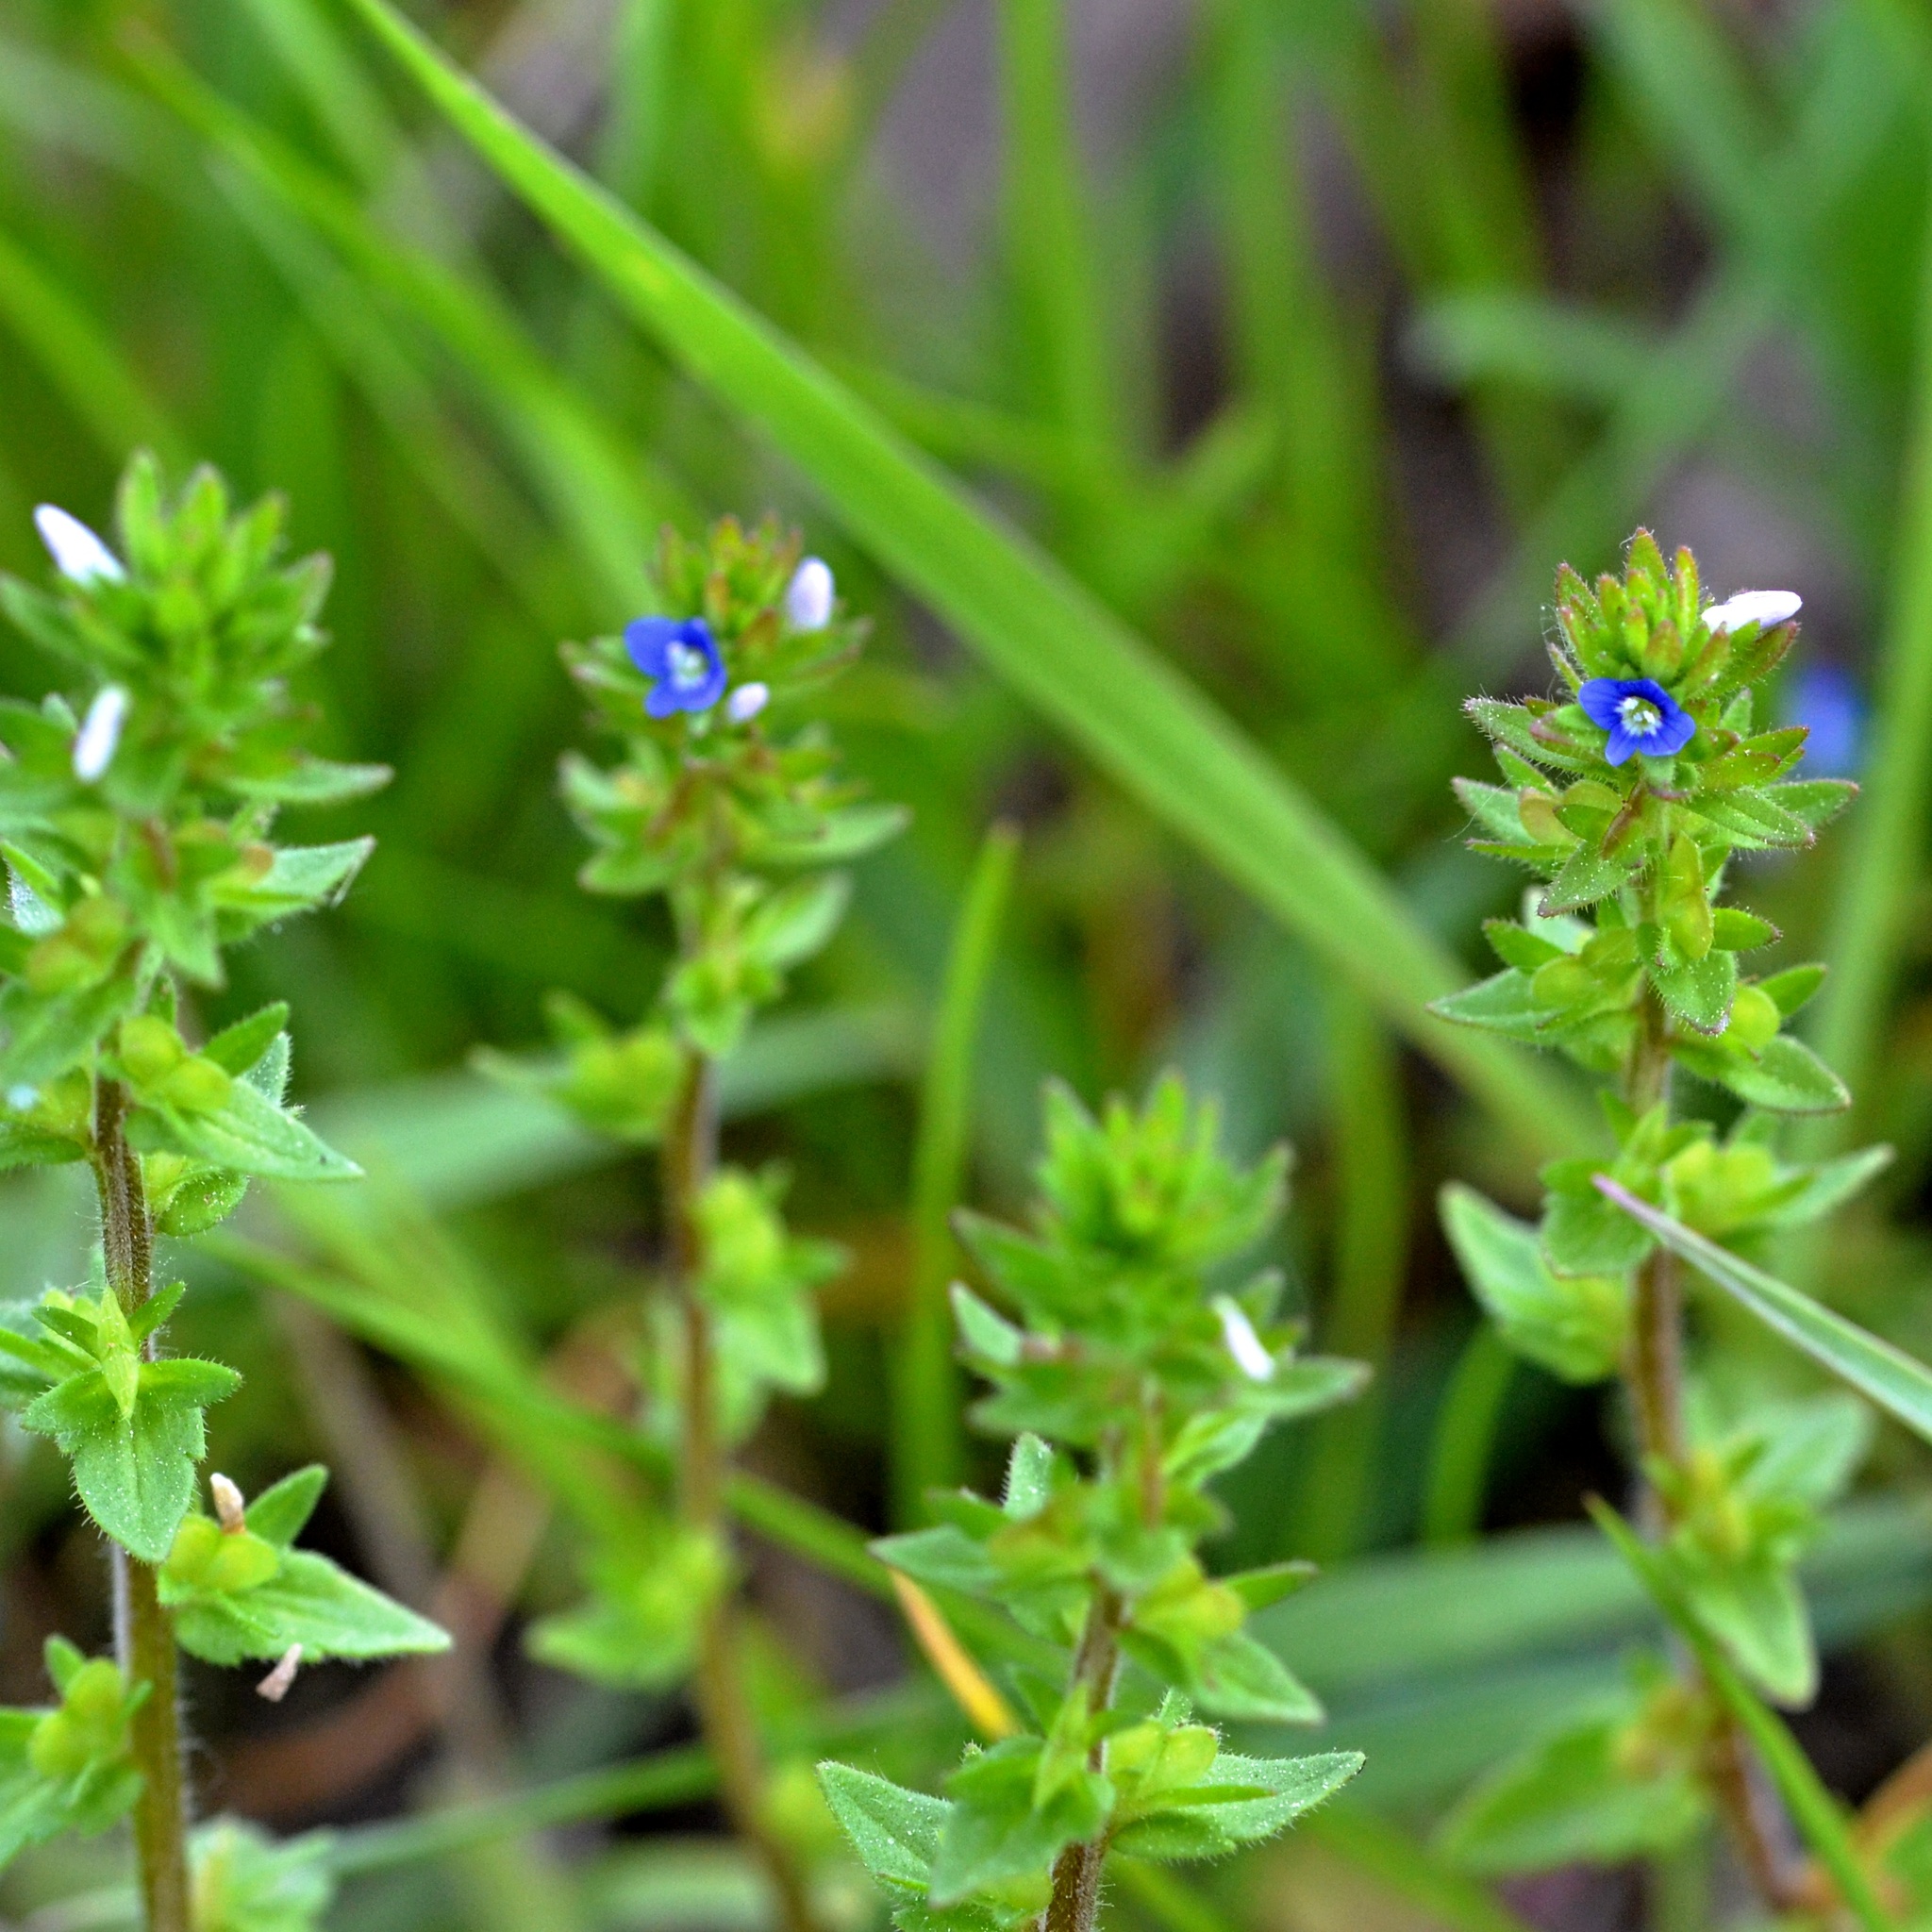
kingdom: Plantae
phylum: Tracheophyta
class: Magnoliopsida
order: Lamiales
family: Plantaginaceae
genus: Veronica
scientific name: Veronica arvensis
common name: Corn speedwell
